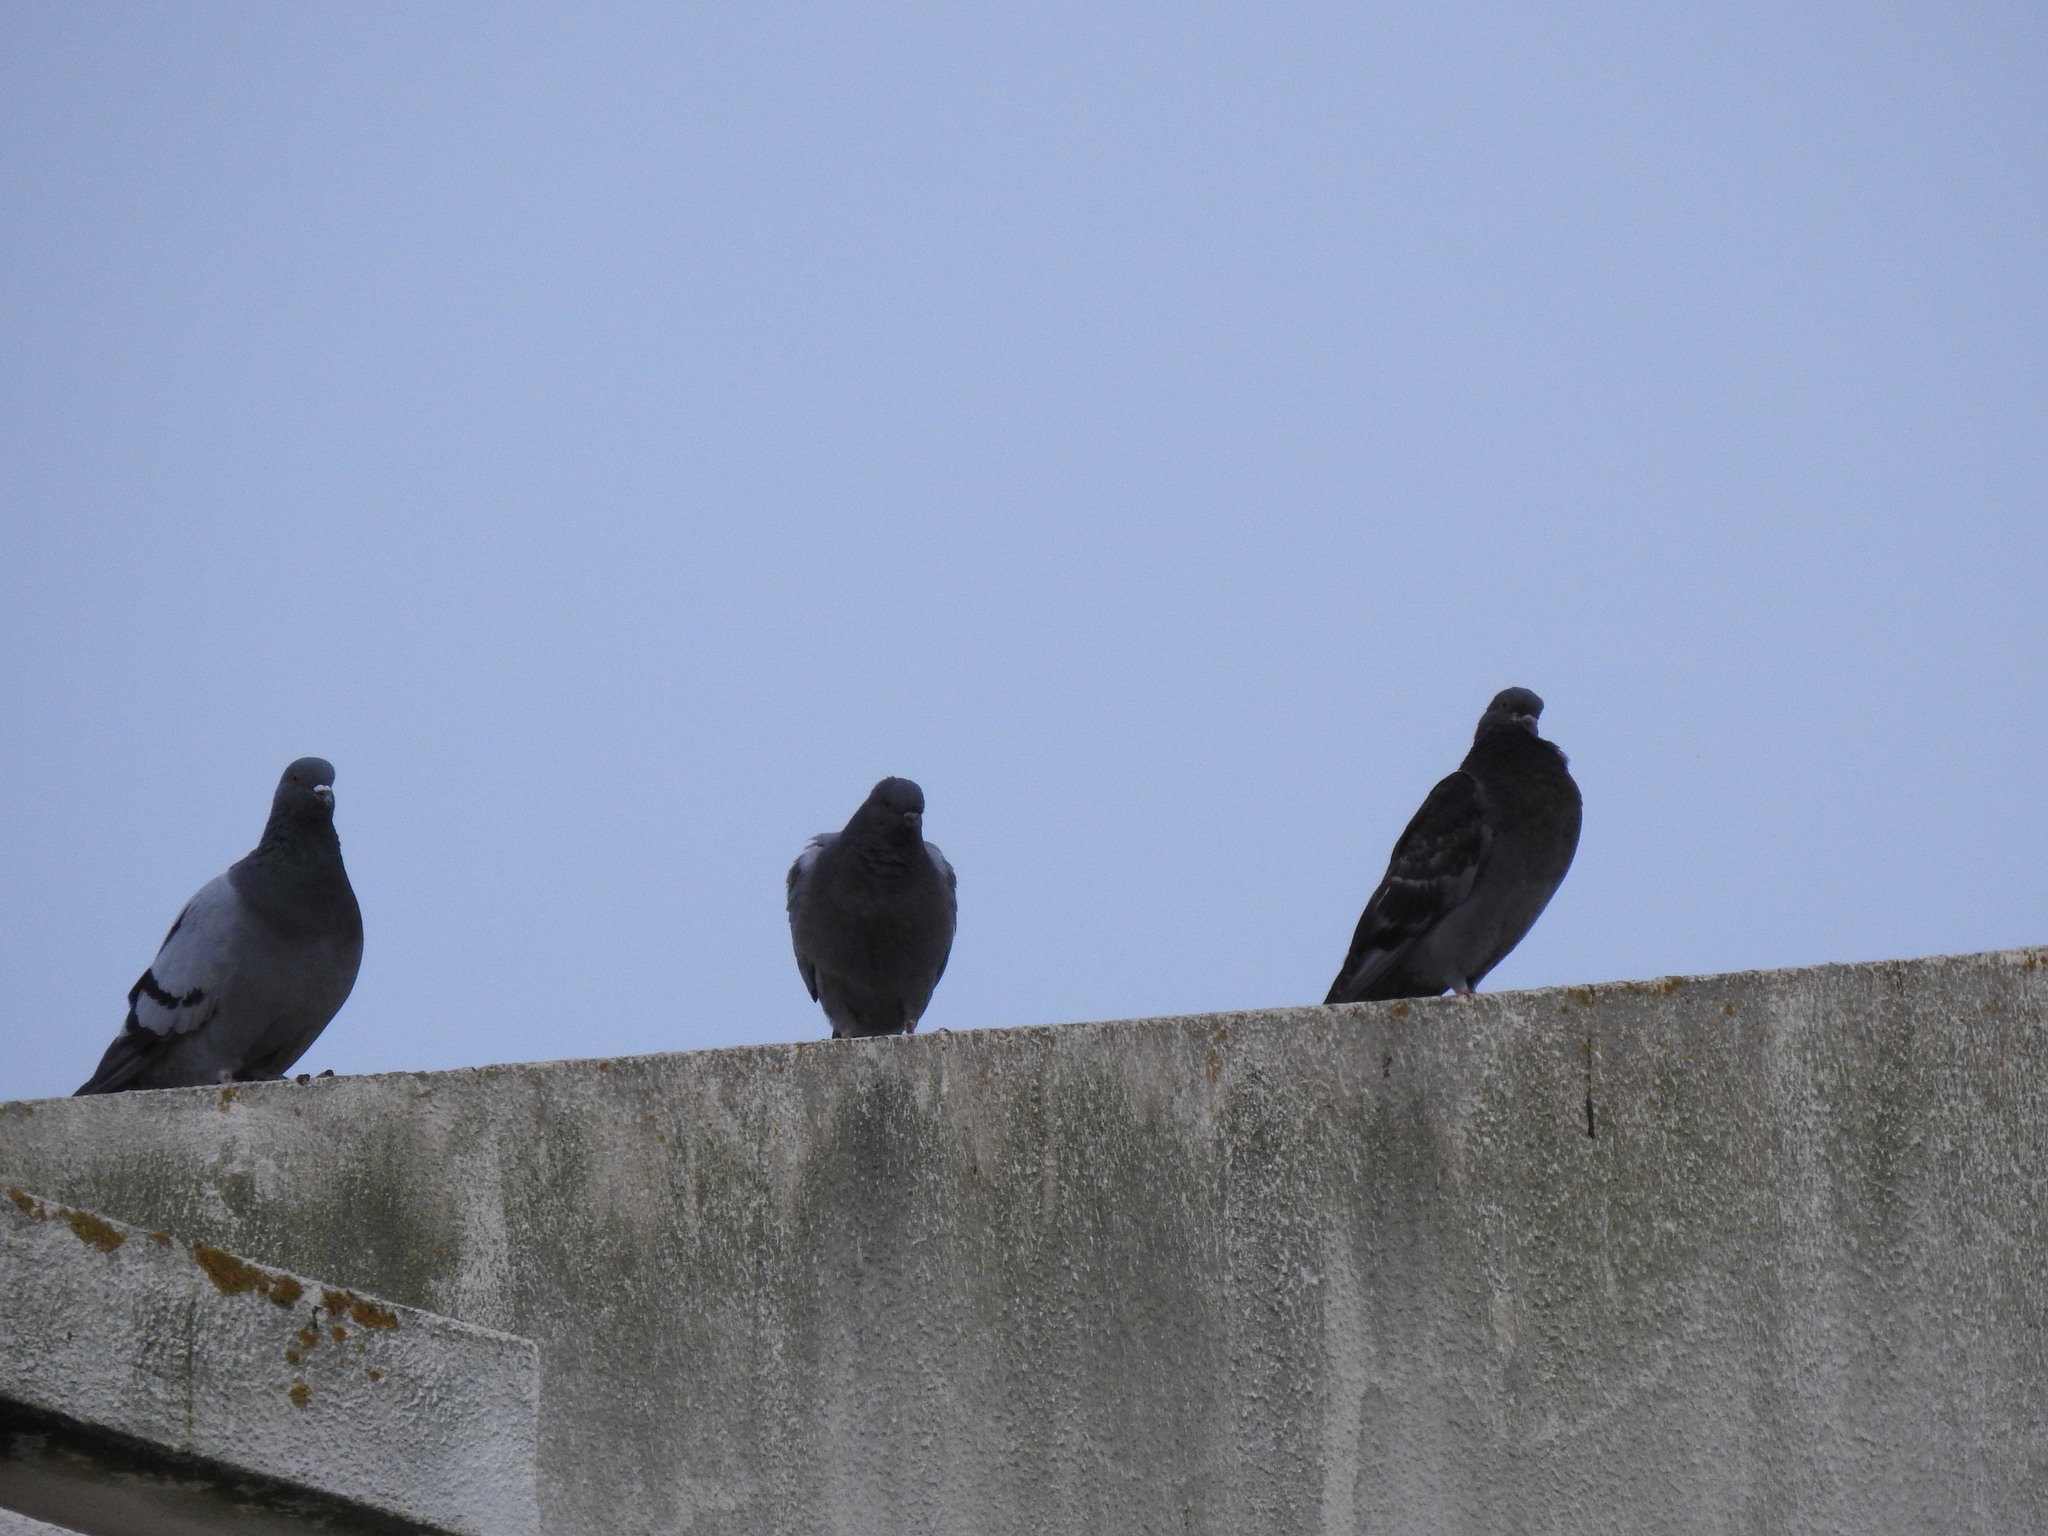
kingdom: Animalia
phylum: Chordata
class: Aves
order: Columbiformes
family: Columbidae
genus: Columba
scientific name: Columba livia
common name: Rock pigeon
